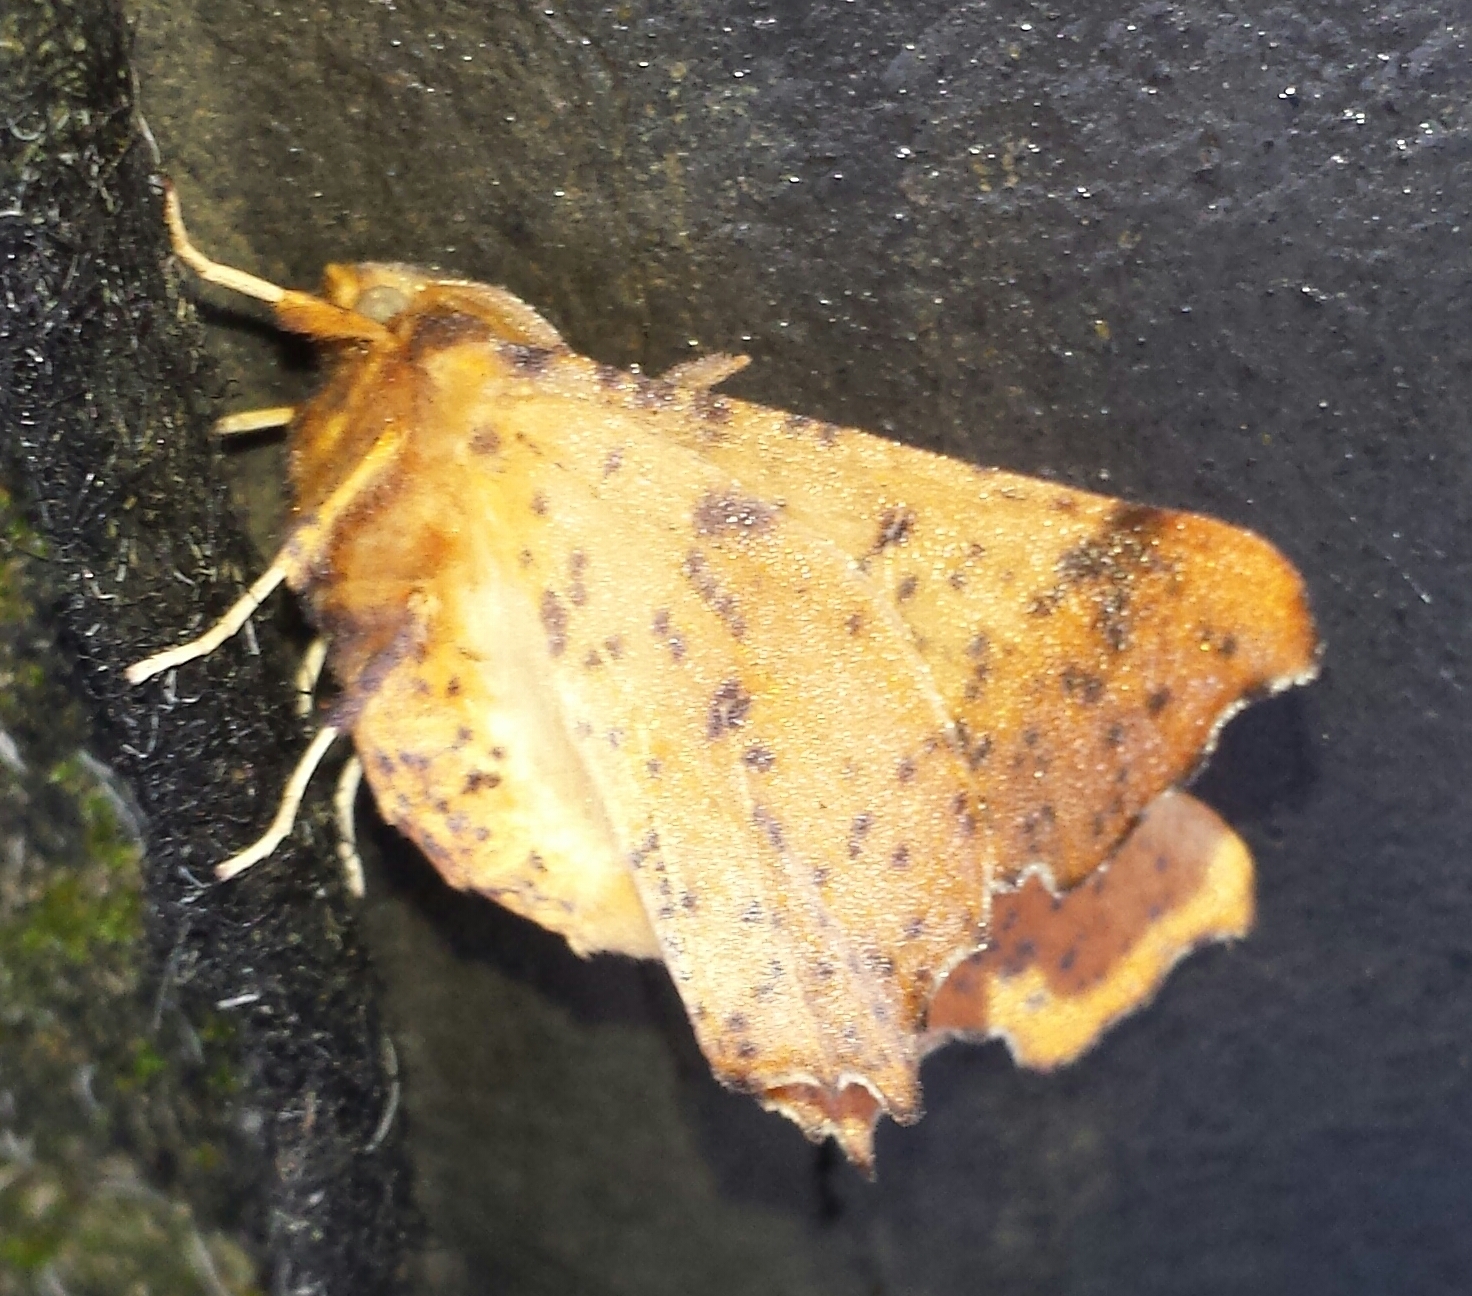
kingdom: Animalia
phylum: Arthropoda
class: Insecta
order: Lepidoptera
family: Geometridae
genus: Ennomos
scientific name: Ennomos magnaria
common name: Maple spanworm
